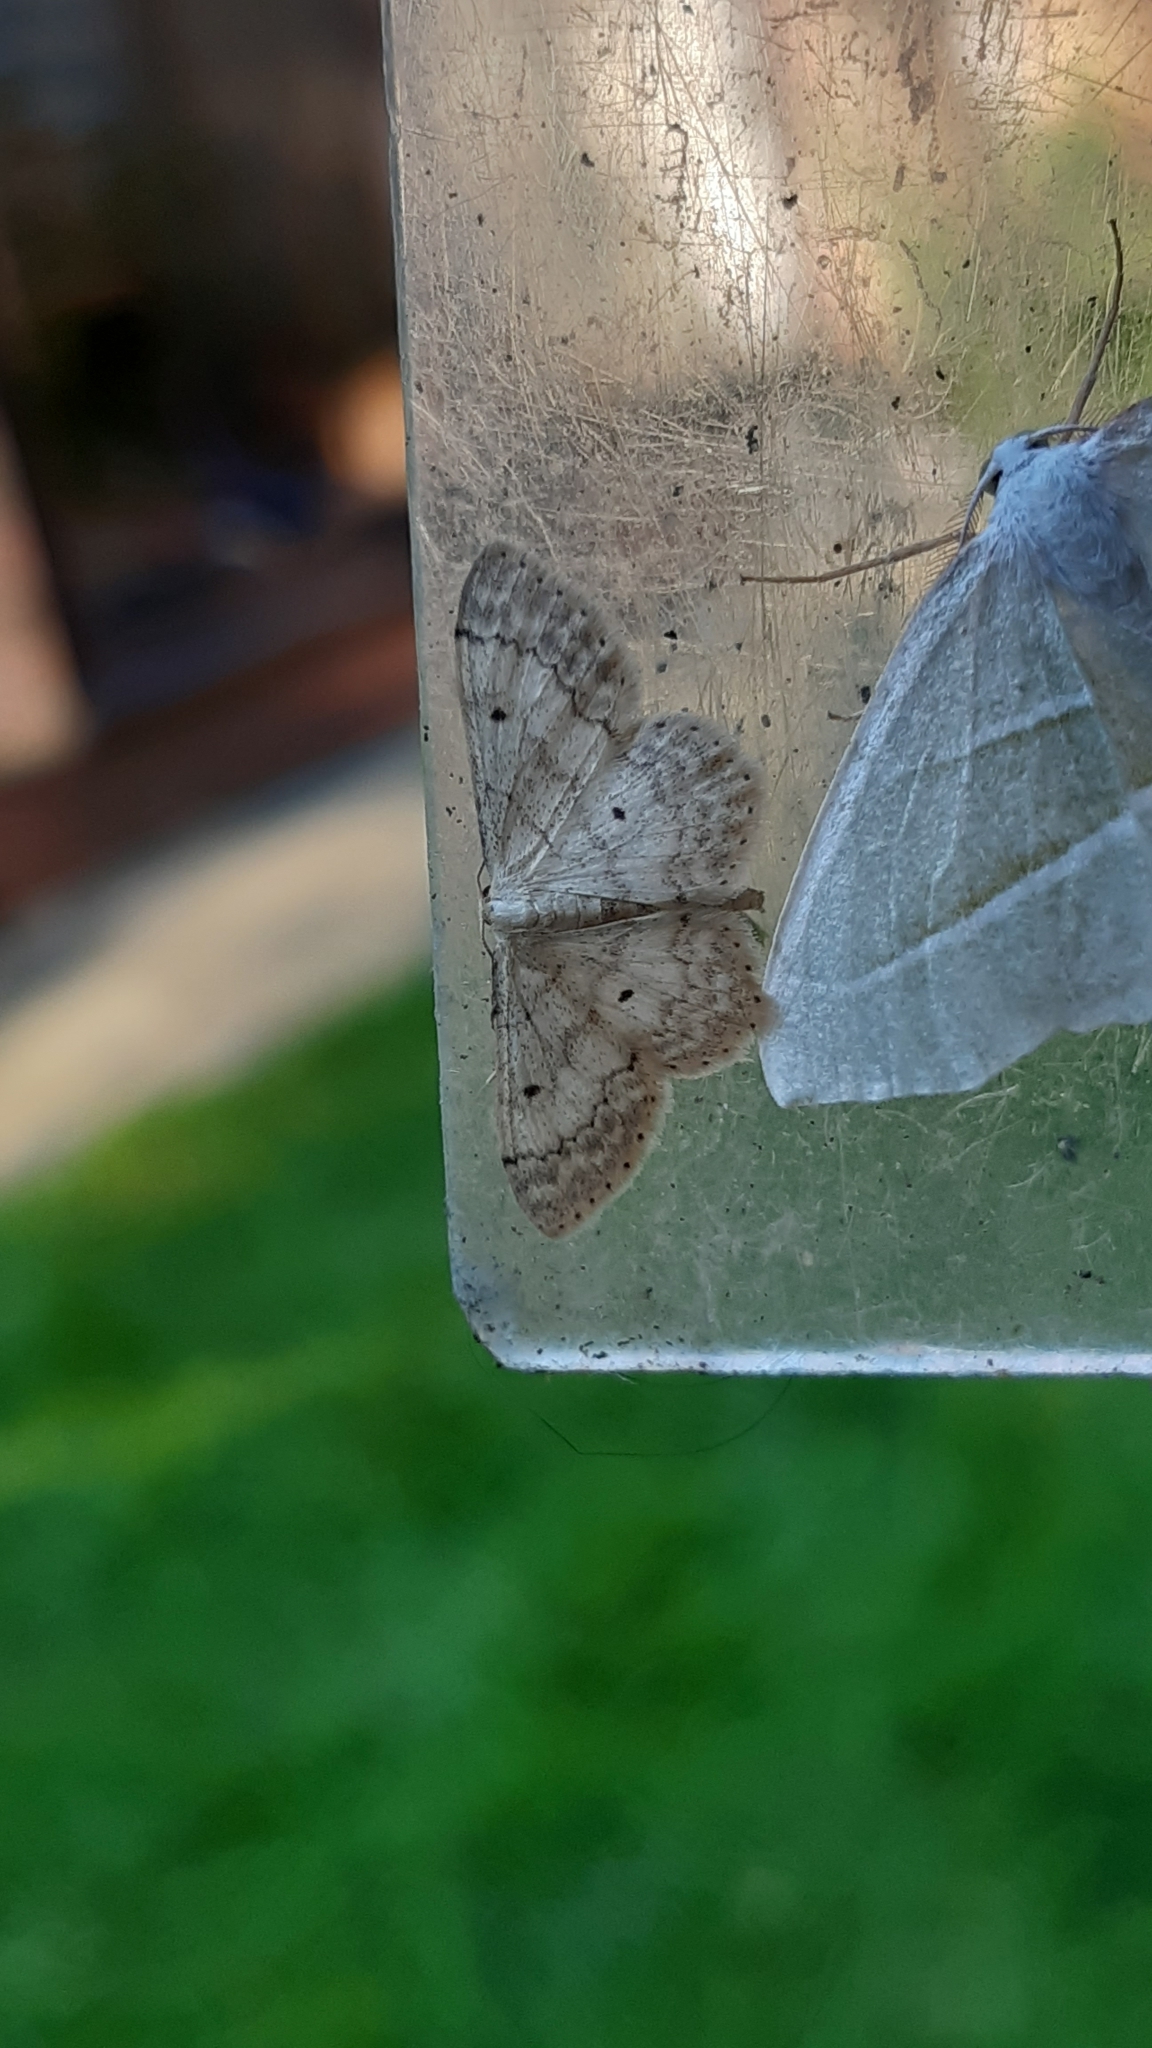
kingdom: Animalia
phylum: Arthropoda
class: Insecta
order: Lepidoptera
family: Geometridae
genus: Idaea
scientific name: Idaea biselata
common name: Small fan-footed wave
